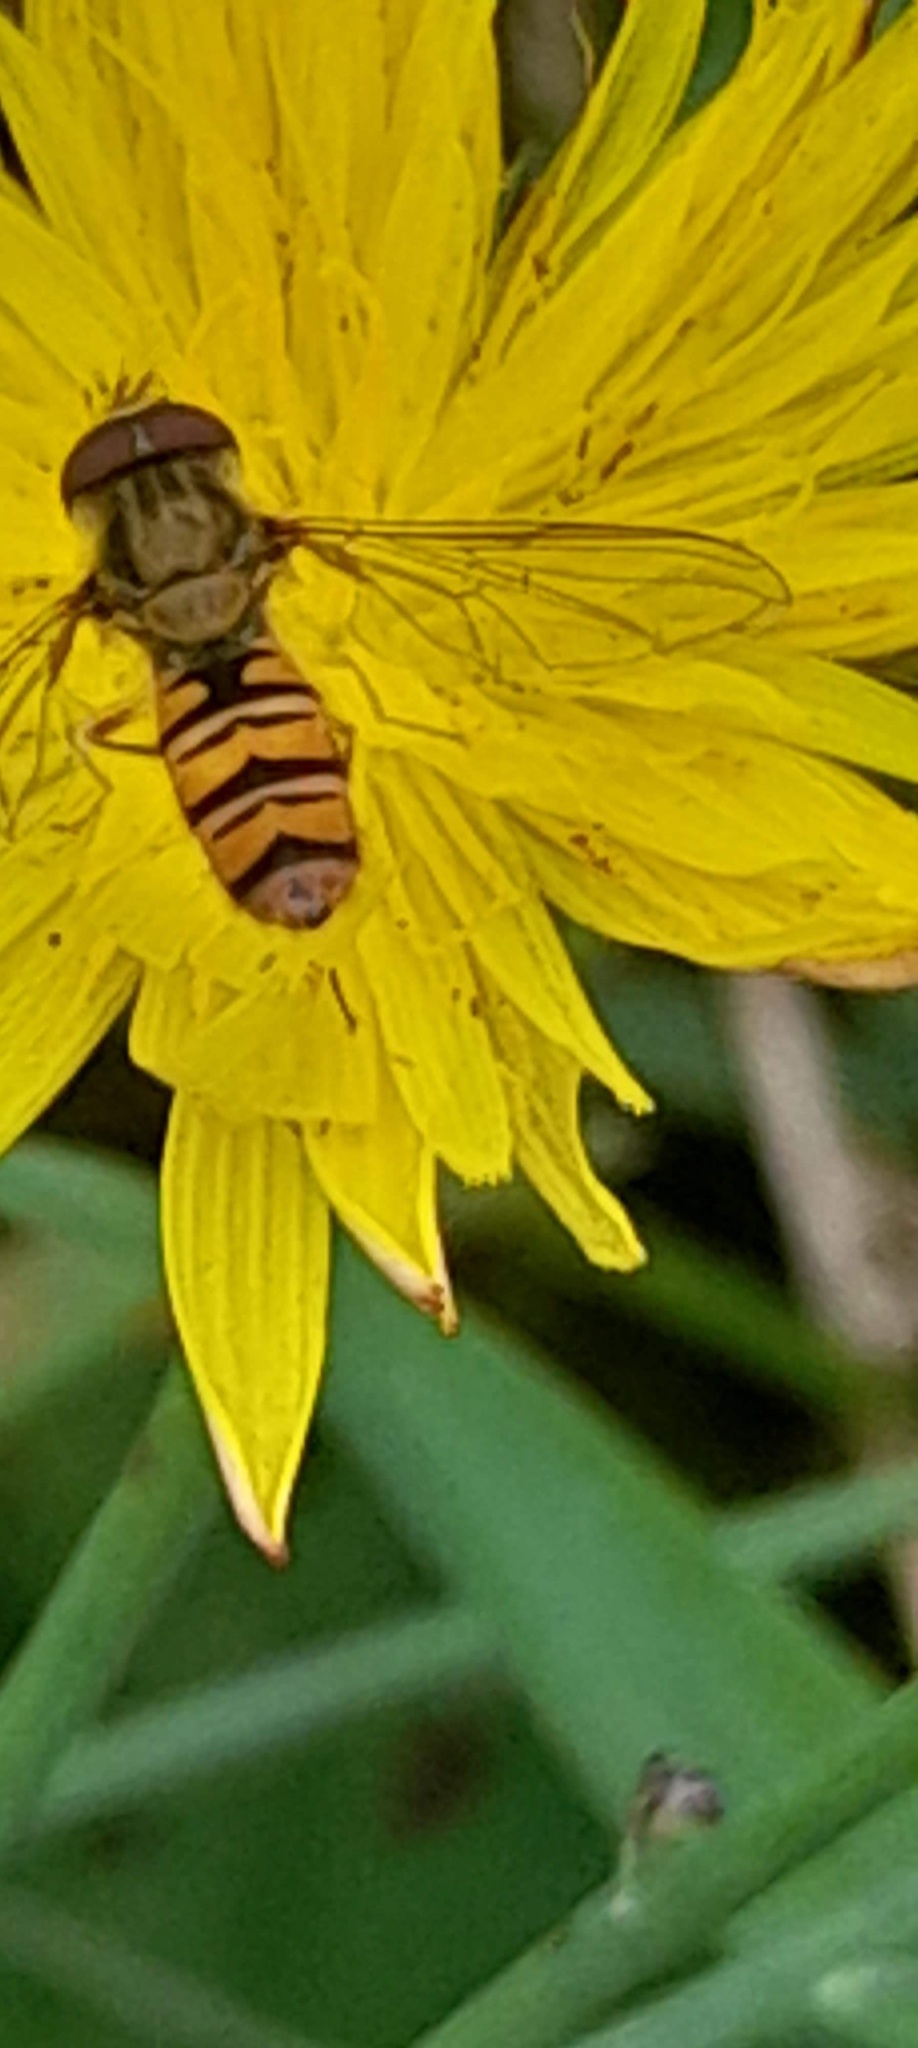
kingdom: Animalia
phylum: Arthropoda
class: Insecta
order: Diptera
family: Syrphidae
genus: Episyrphus
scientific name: Episyrphus balteatus
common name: Marmalade hoverfly
